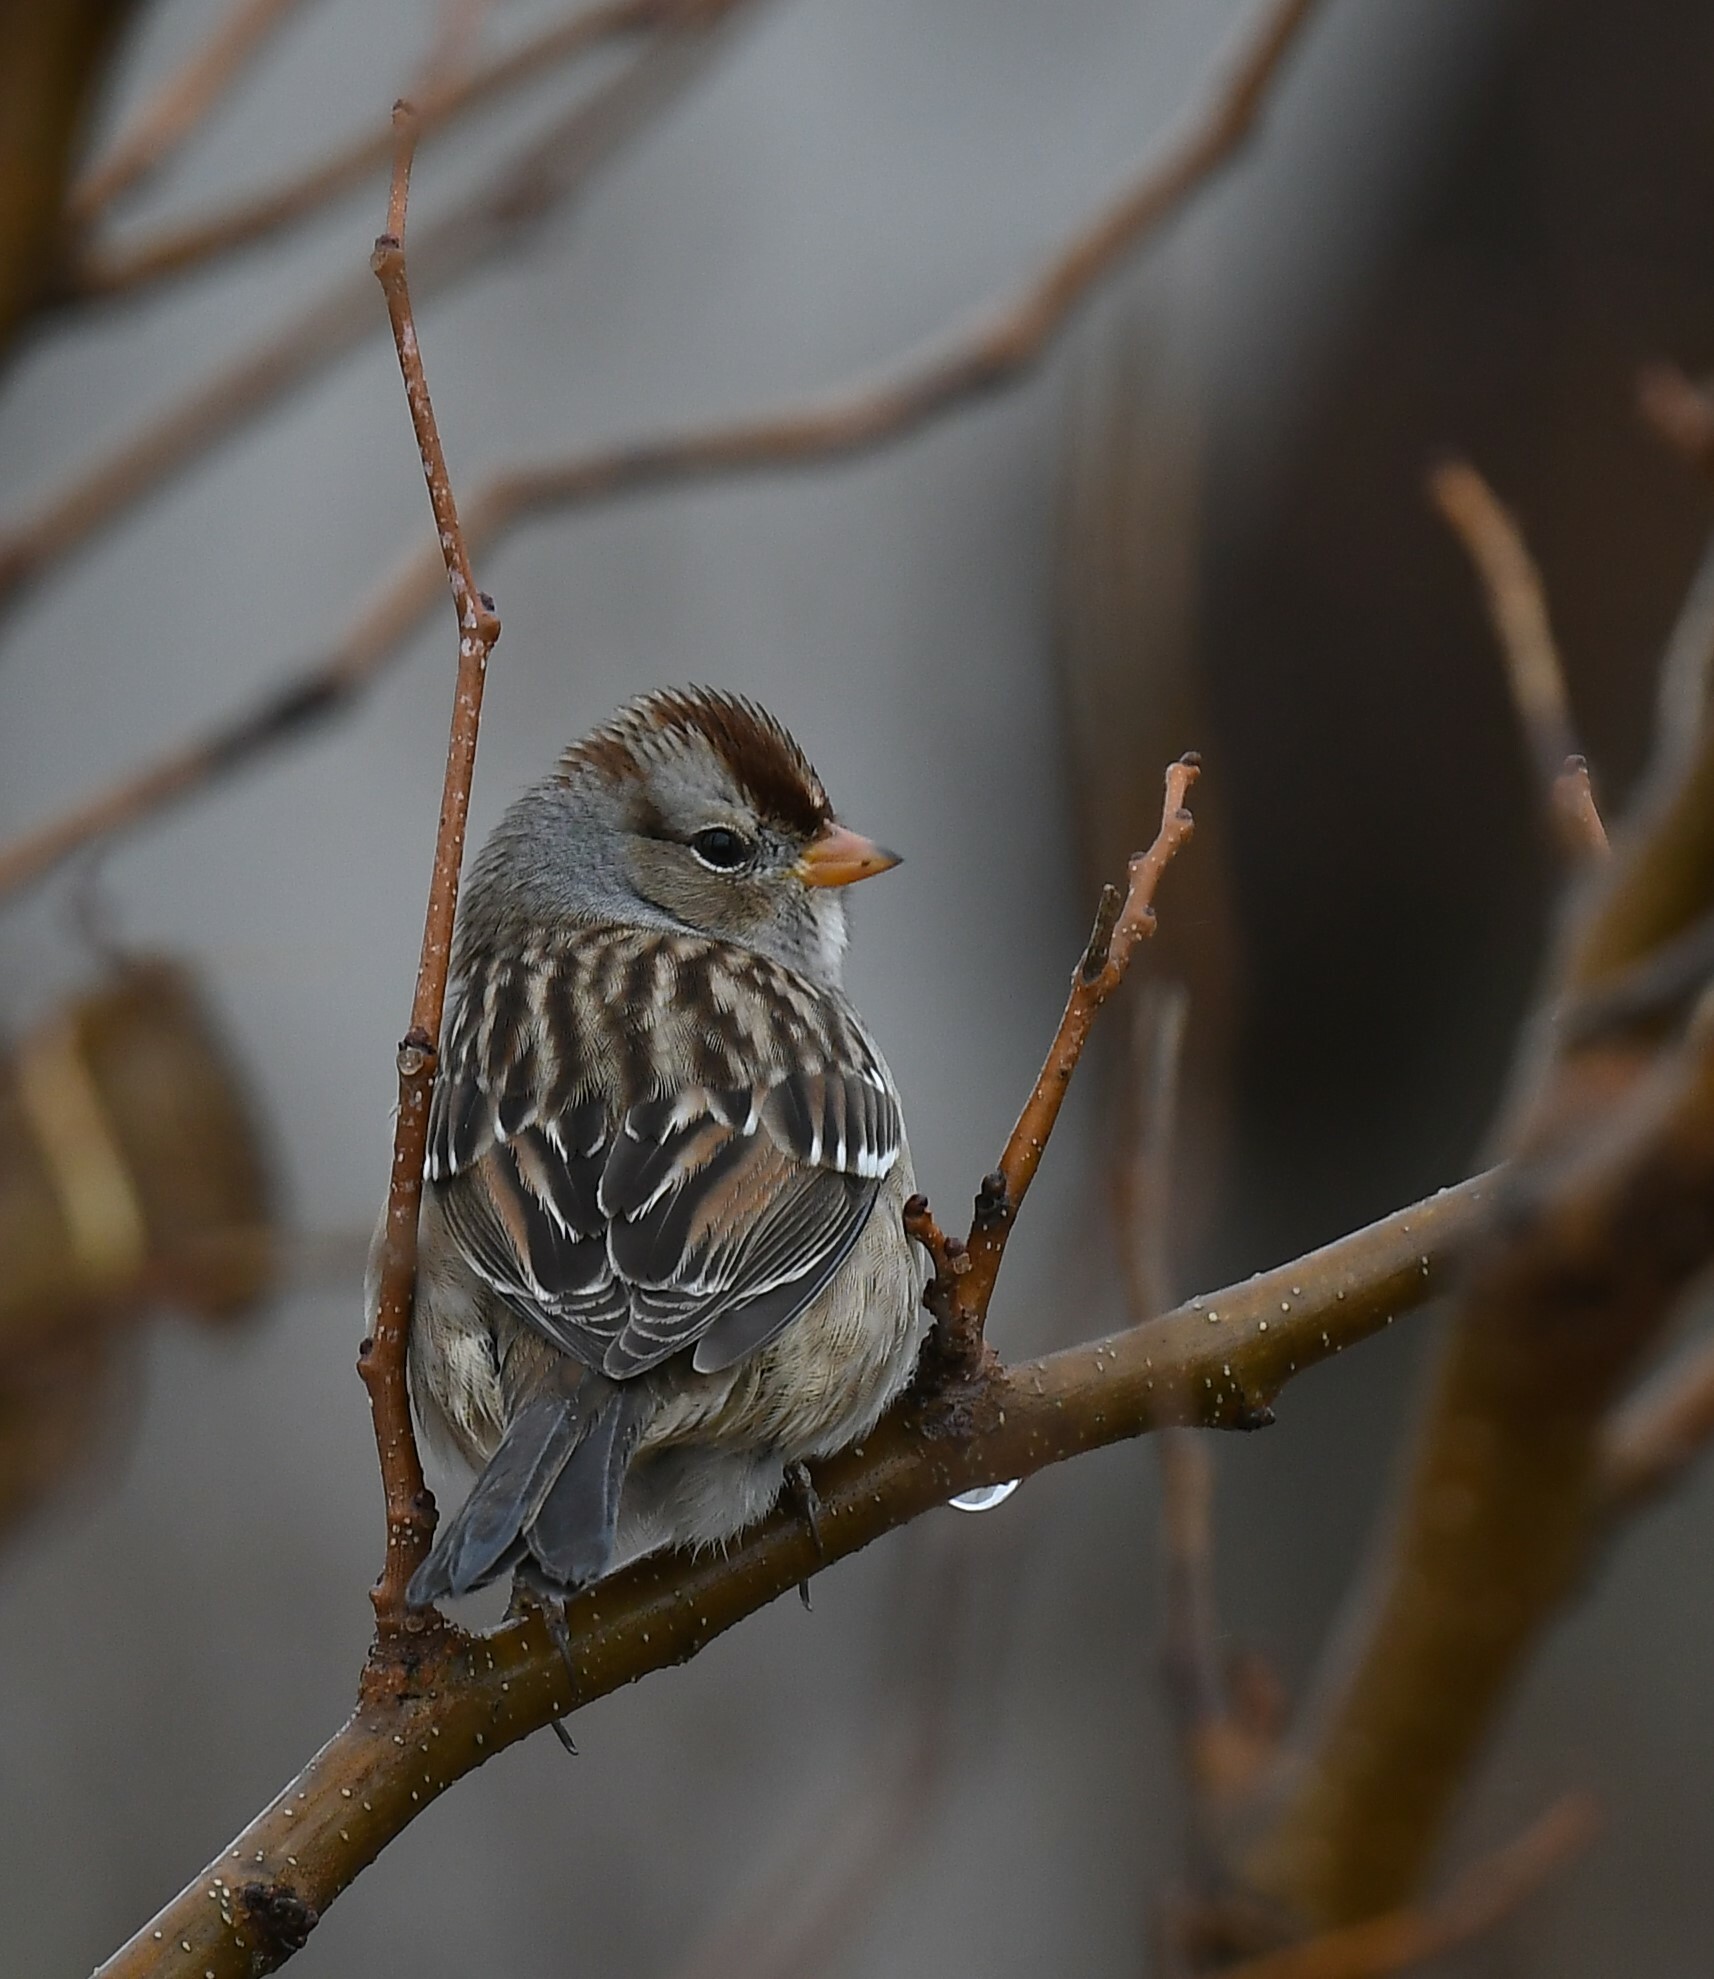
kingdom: Animalia
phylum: Chordata
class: Aves
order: Passeriformes
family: Passerellidae
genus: Zonotrichia
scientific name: Zonotrichia leucophrys
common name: White-crowned sparrow
